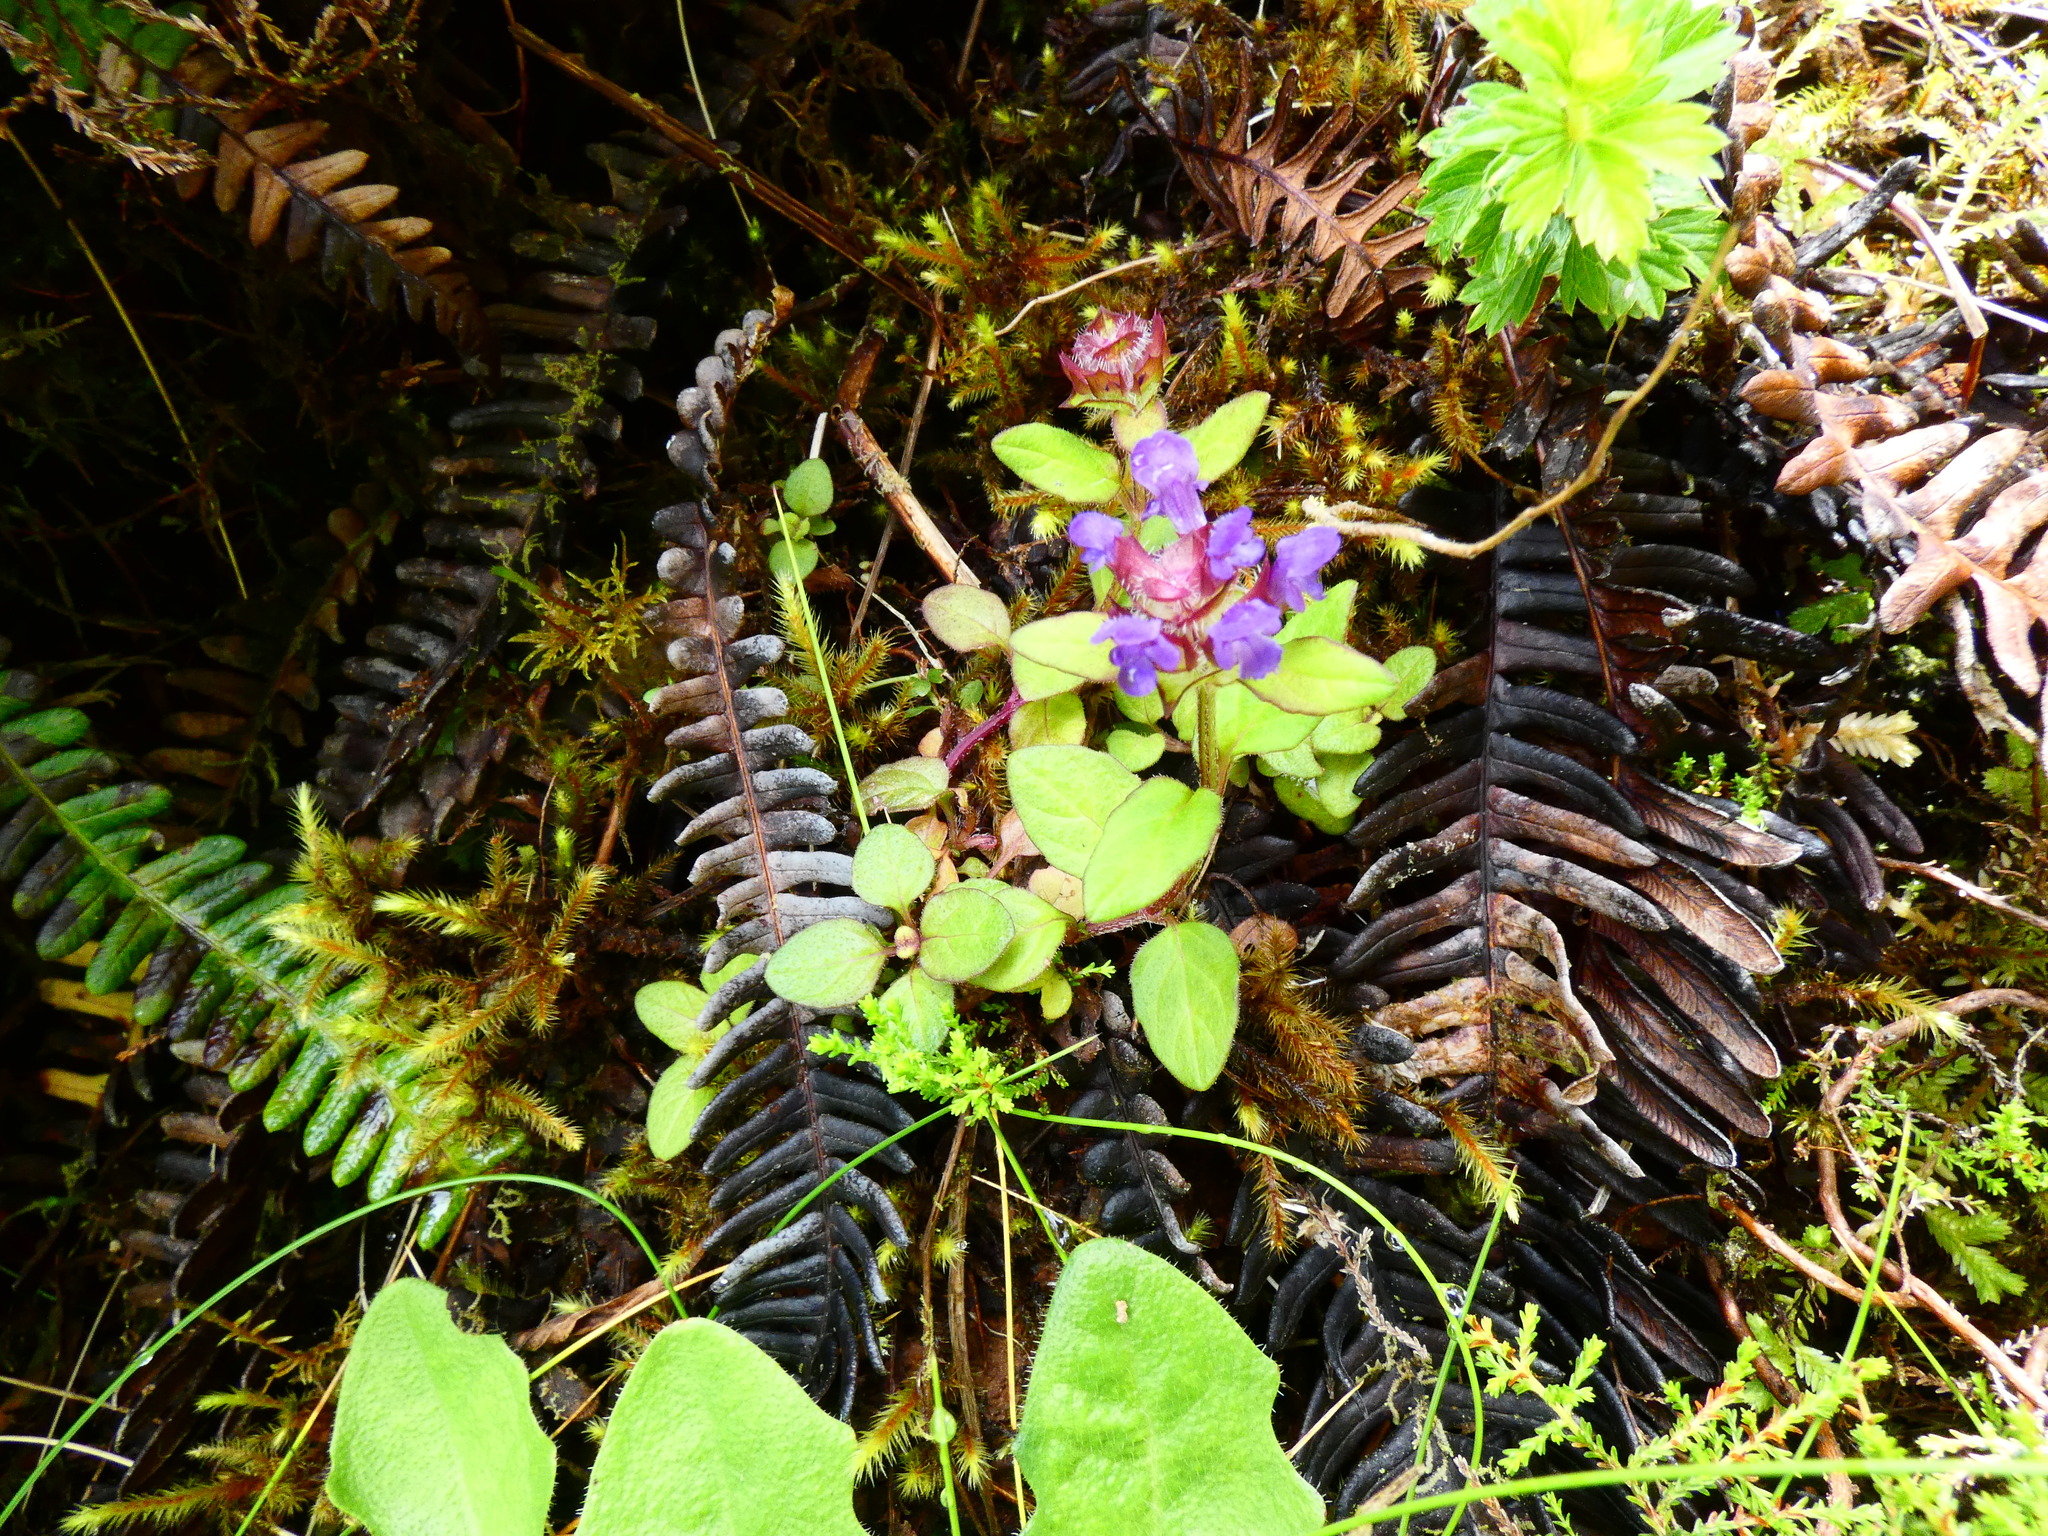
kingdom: Plantae
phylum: Tracheophyta
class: Magnoliopsida
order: Lamiales
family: Lamiaceae
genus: Prunella
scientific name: Prunella vulgaris
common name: Heal-all
